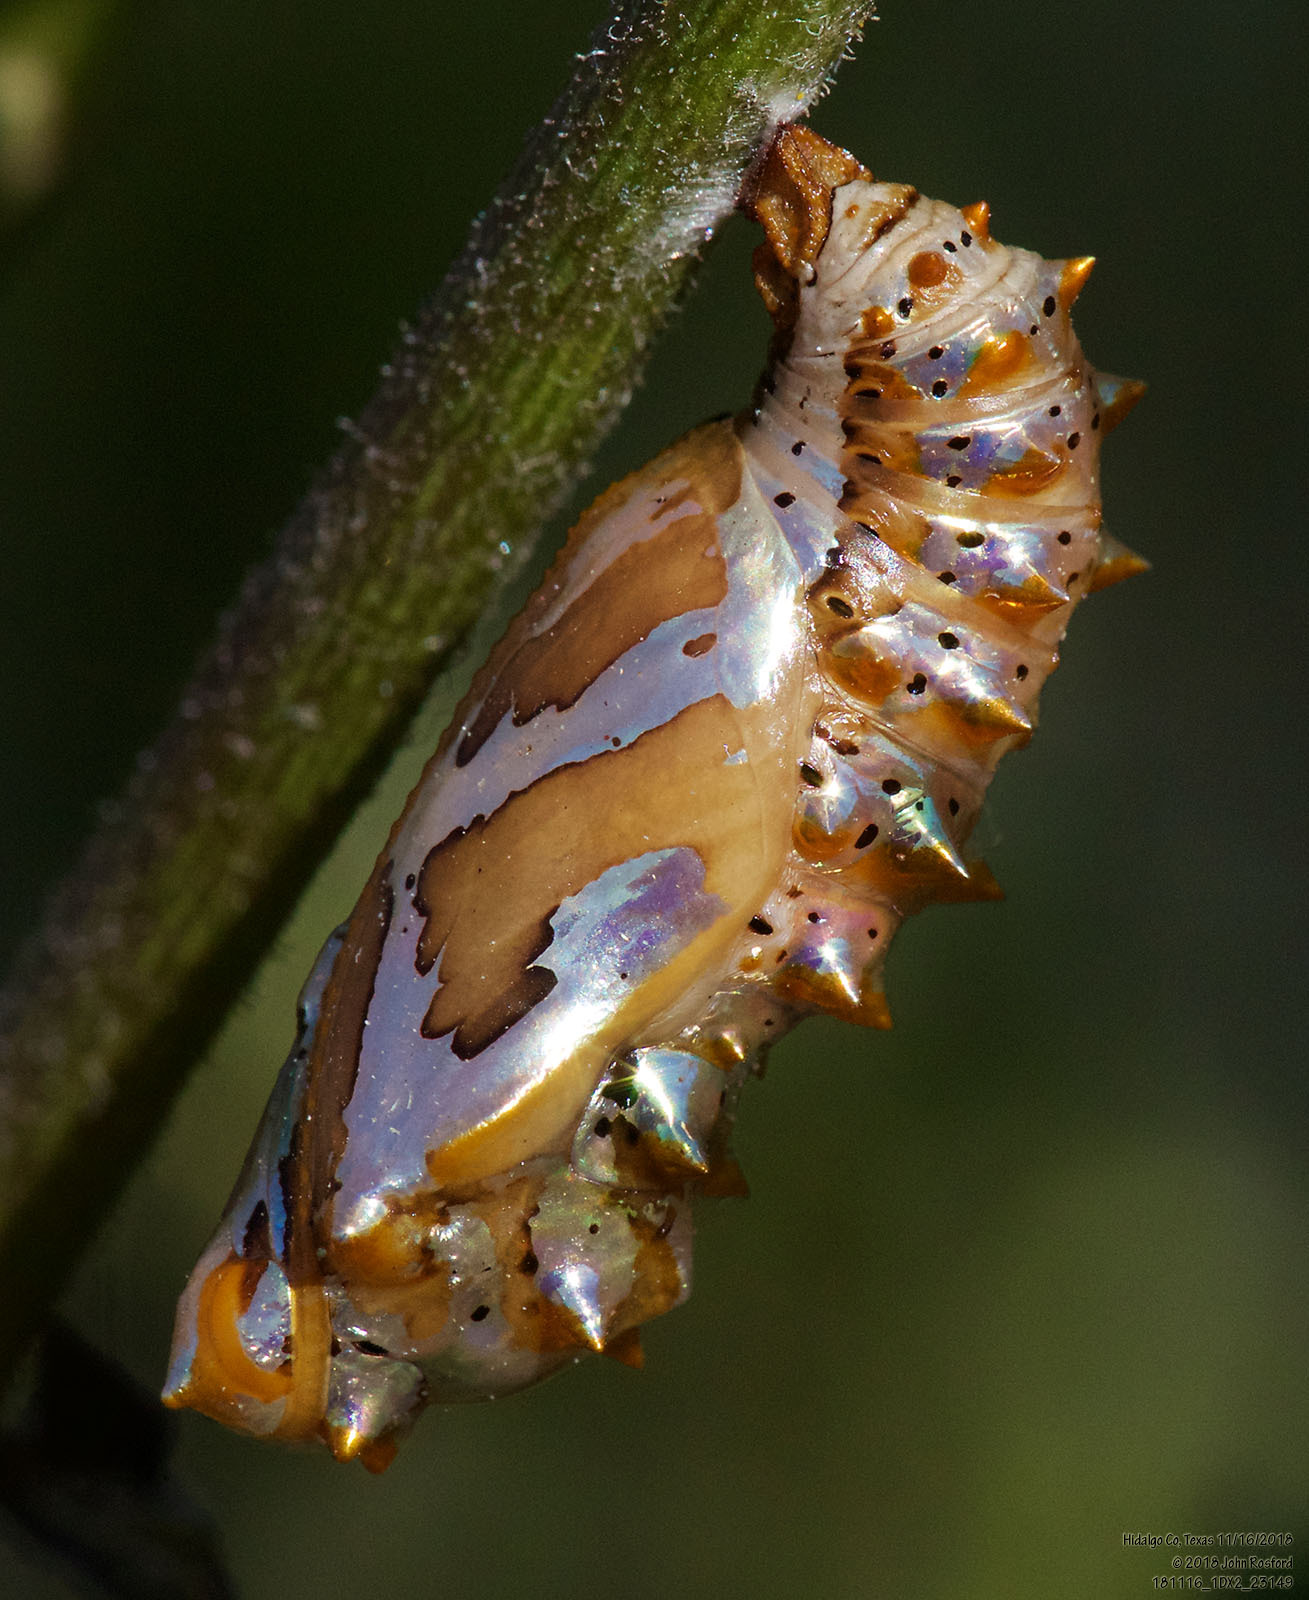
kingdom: Animalia
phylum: Arthropoda
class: Insecta
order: Lepidoptera
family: Nymphalidae
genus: Euptoieta
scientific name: Euptoieta hegesia
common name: Mexican fritillary
